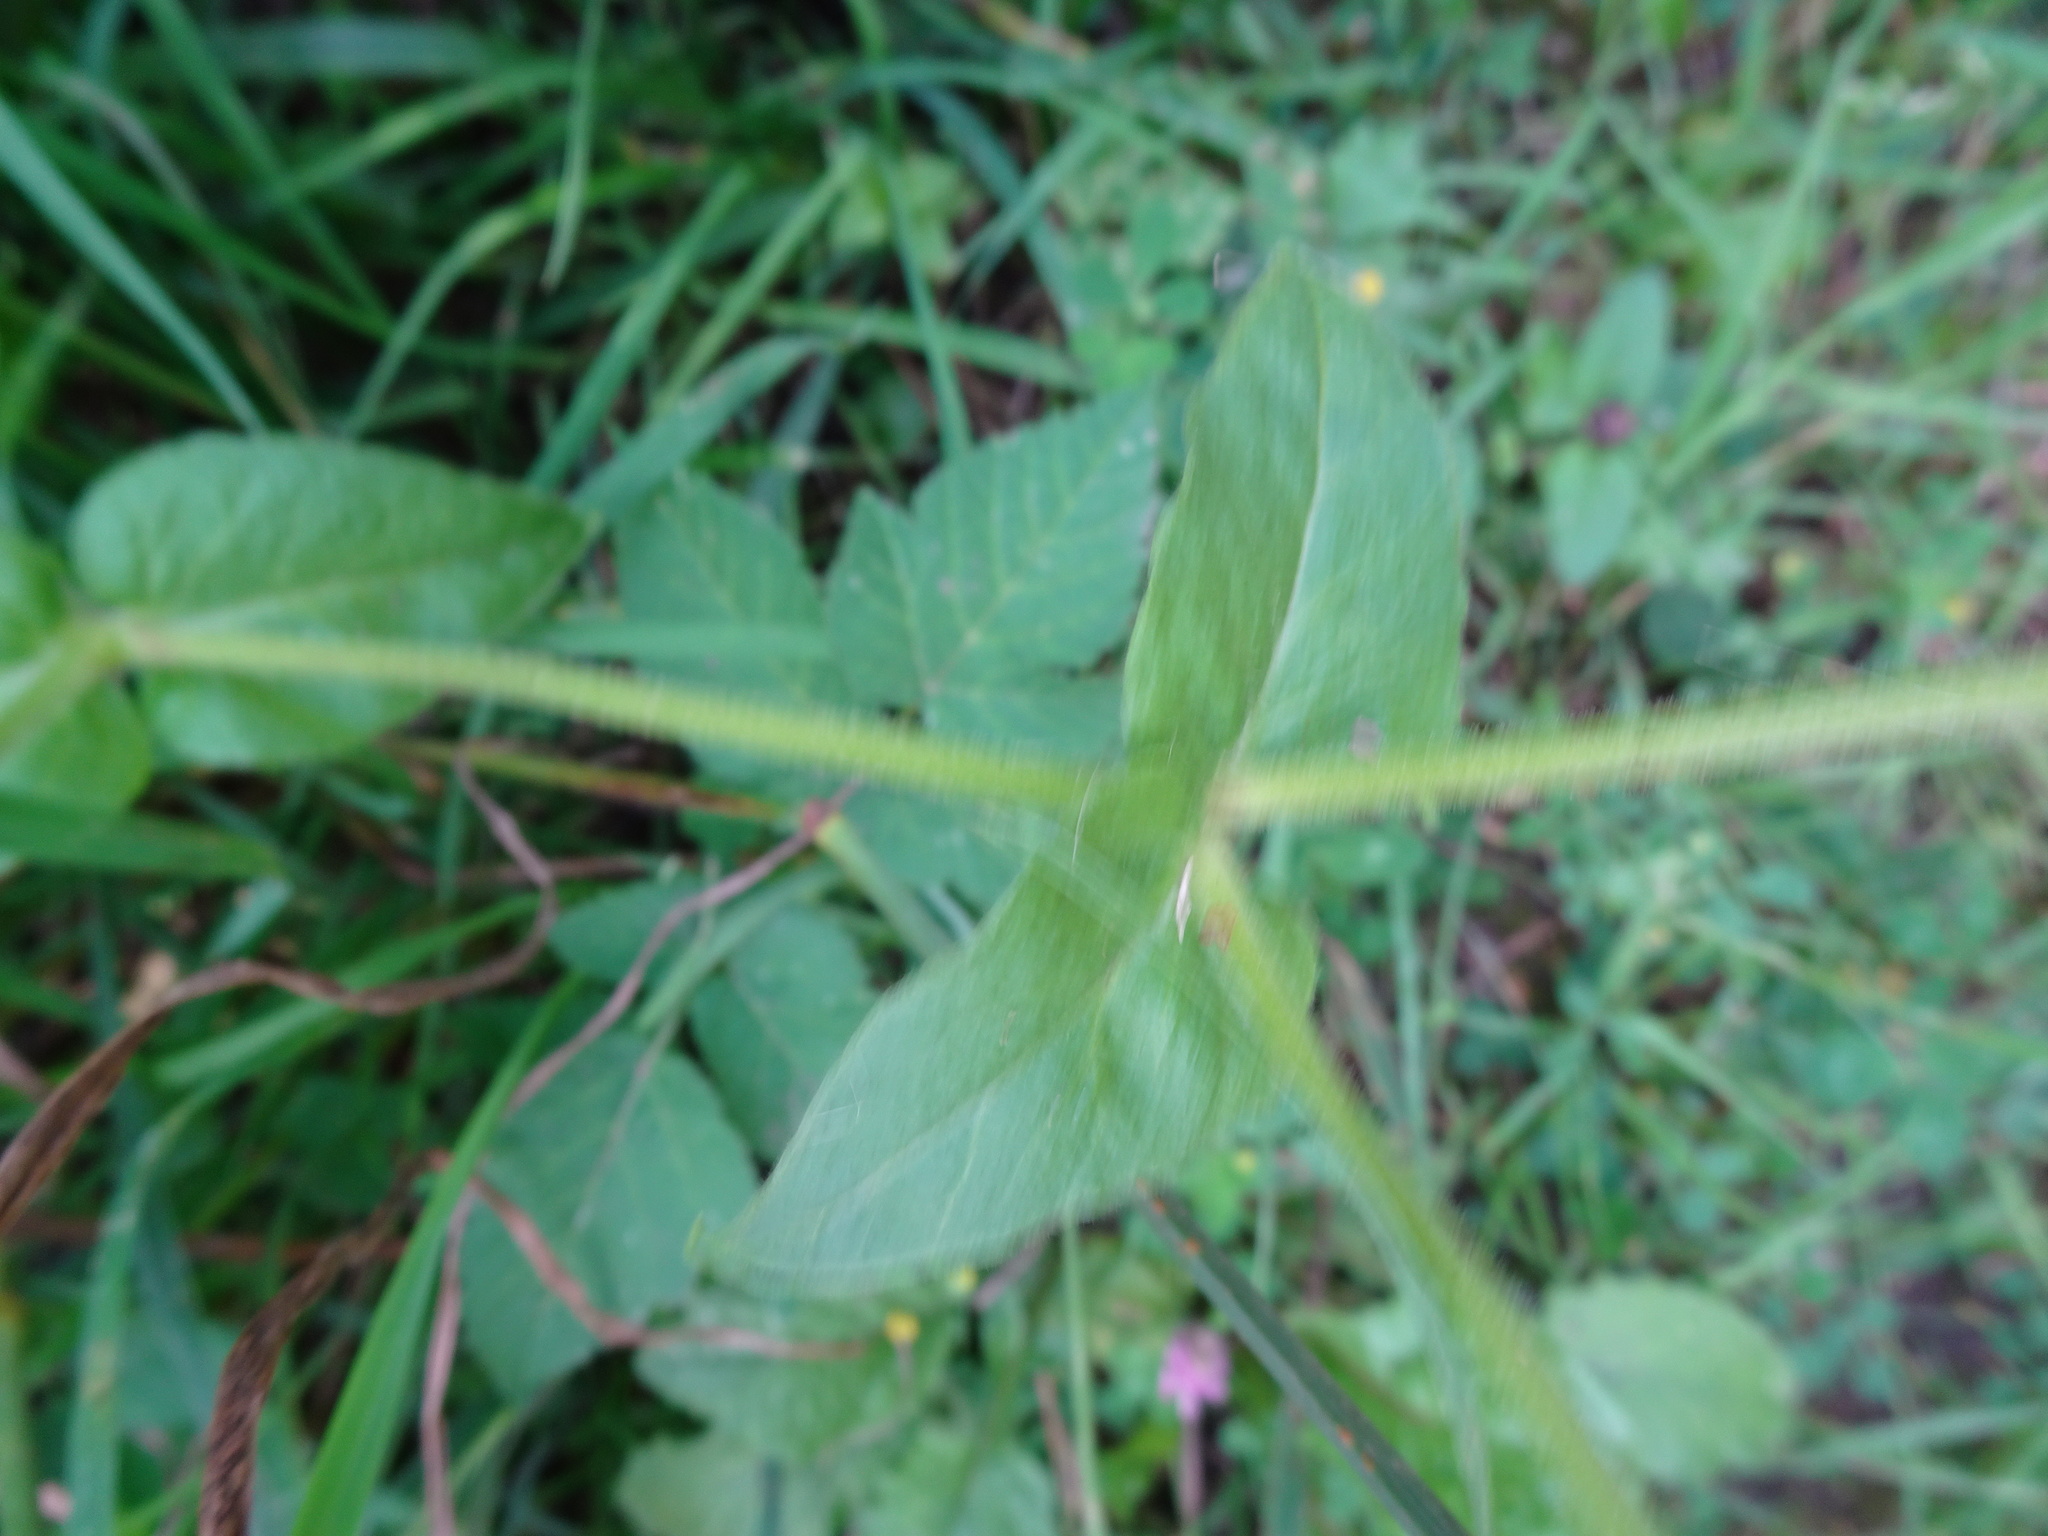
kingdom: Plantae
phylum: Tracheophyta
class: Magnoliopsida
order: Caryophyllales
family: Caryophyllaceae
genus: Stellaria
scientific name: Stellaria aquatica
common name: Water chickweed
